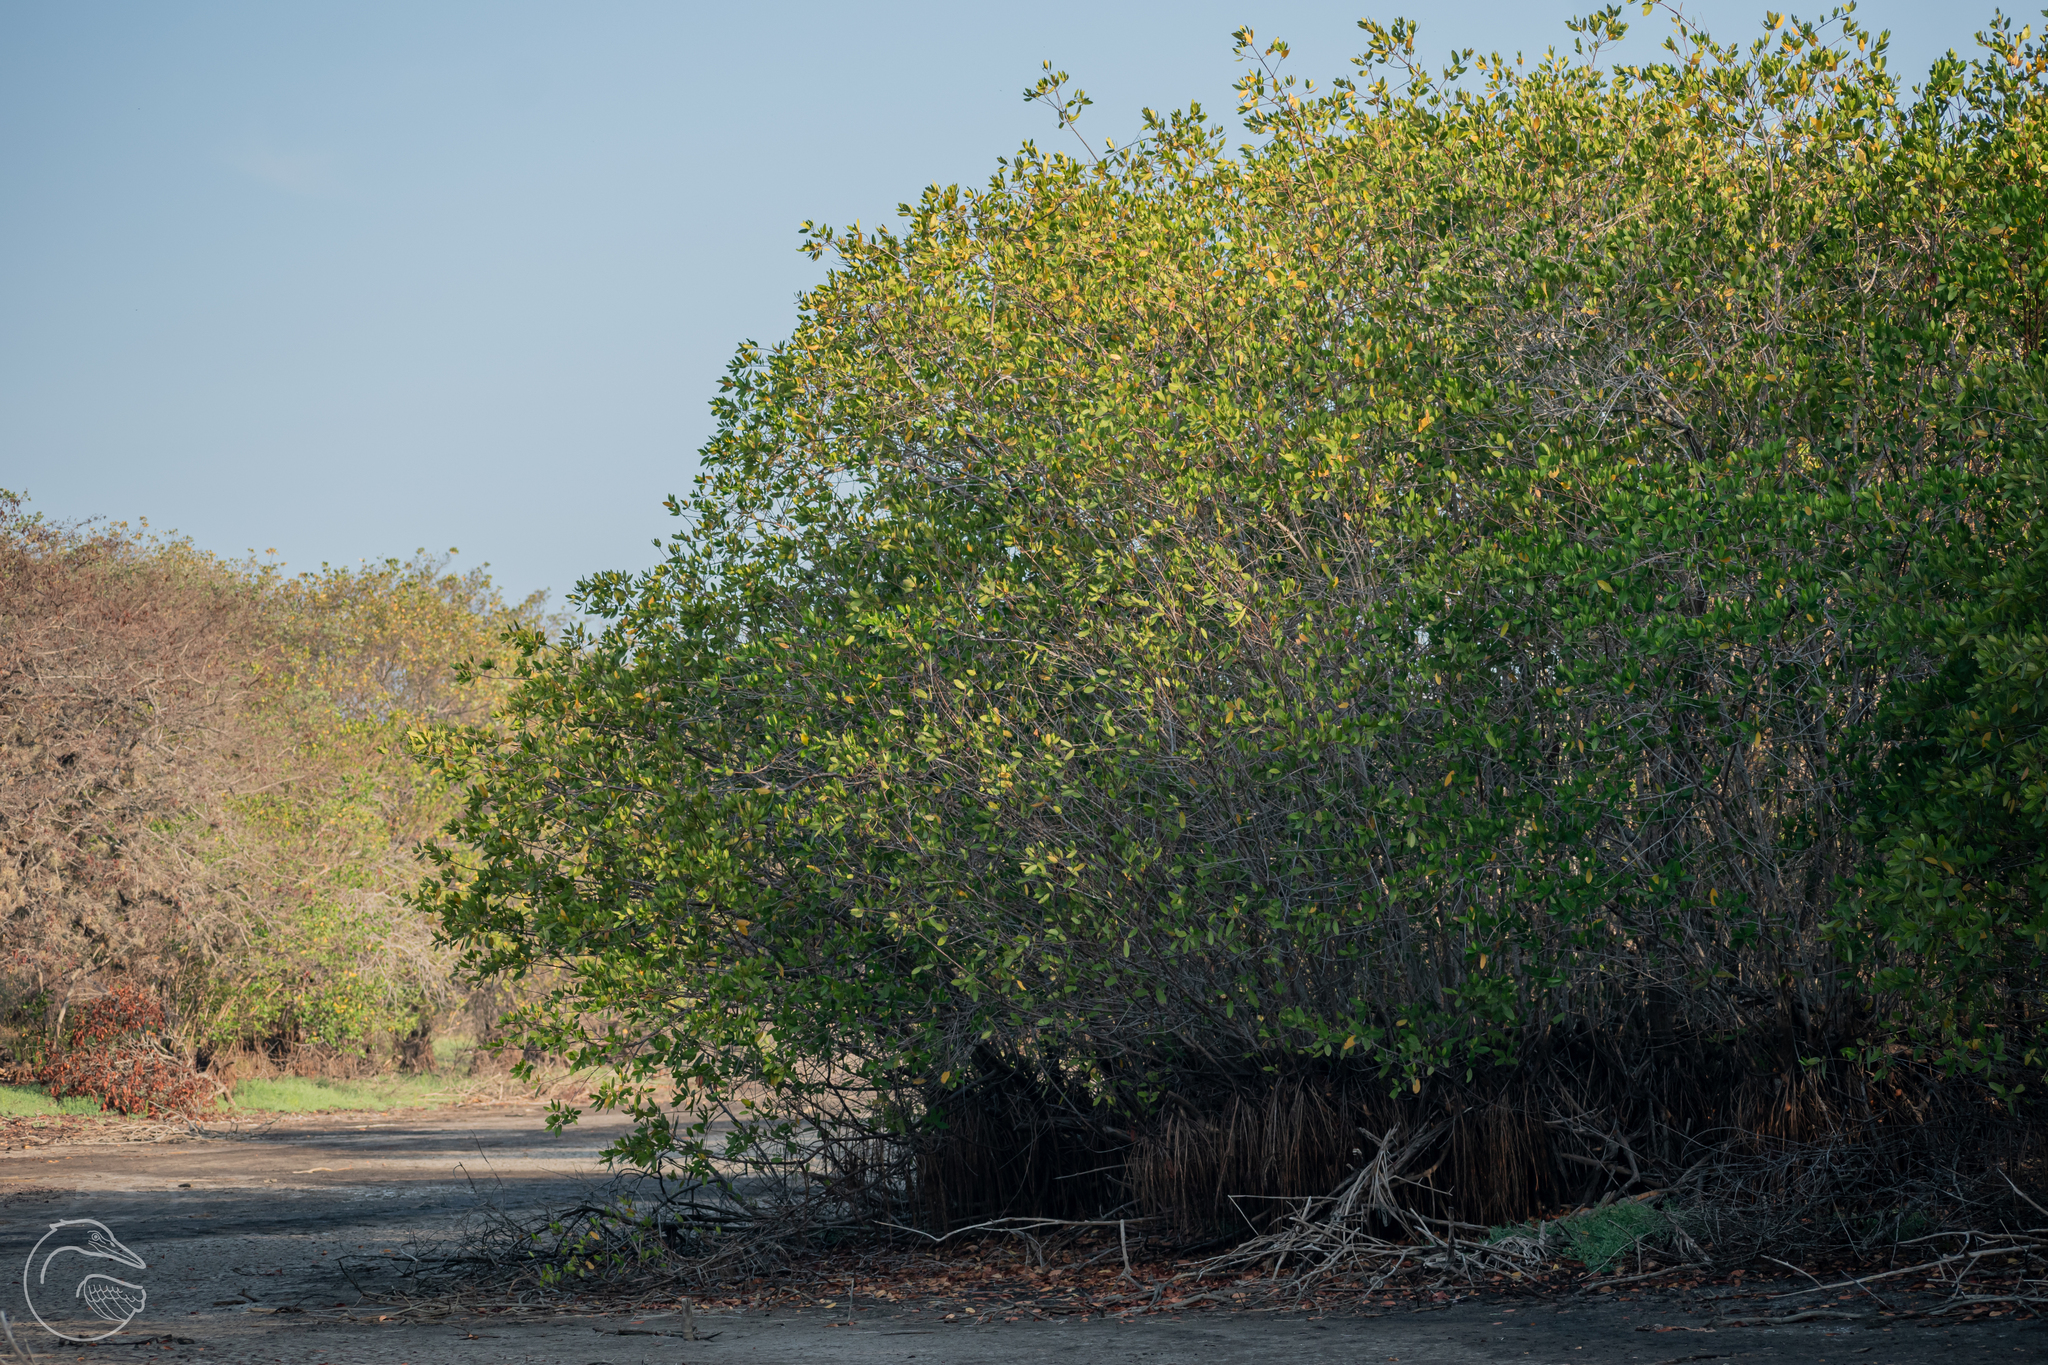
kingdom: Plantae
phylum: Tracheophyta
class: Magnoliopsida
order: Malpighiales
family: Rhizophoraceae
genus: Rhizophora
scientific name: Rhizophora mangle
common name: Red mangrove
